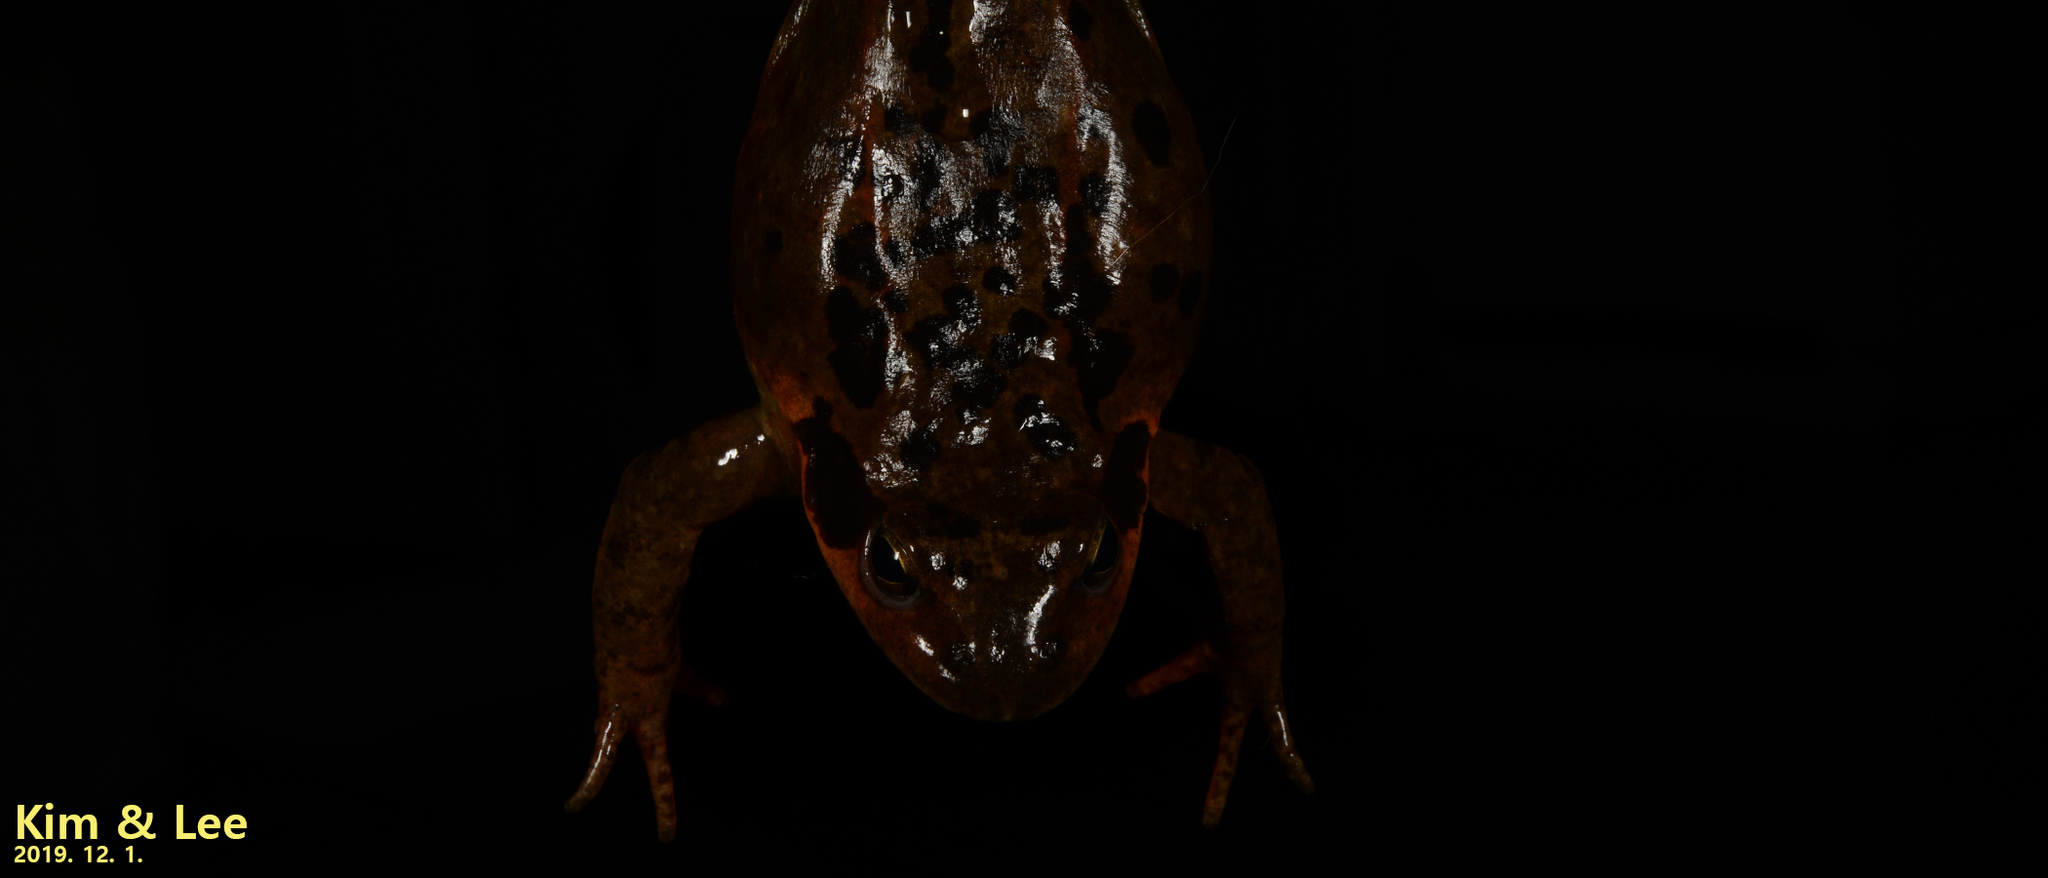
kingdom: Animalia
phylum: Chordata
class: Amphibia
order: Anura
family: Ranidae
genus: Rana
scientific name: Rana dybowskii
